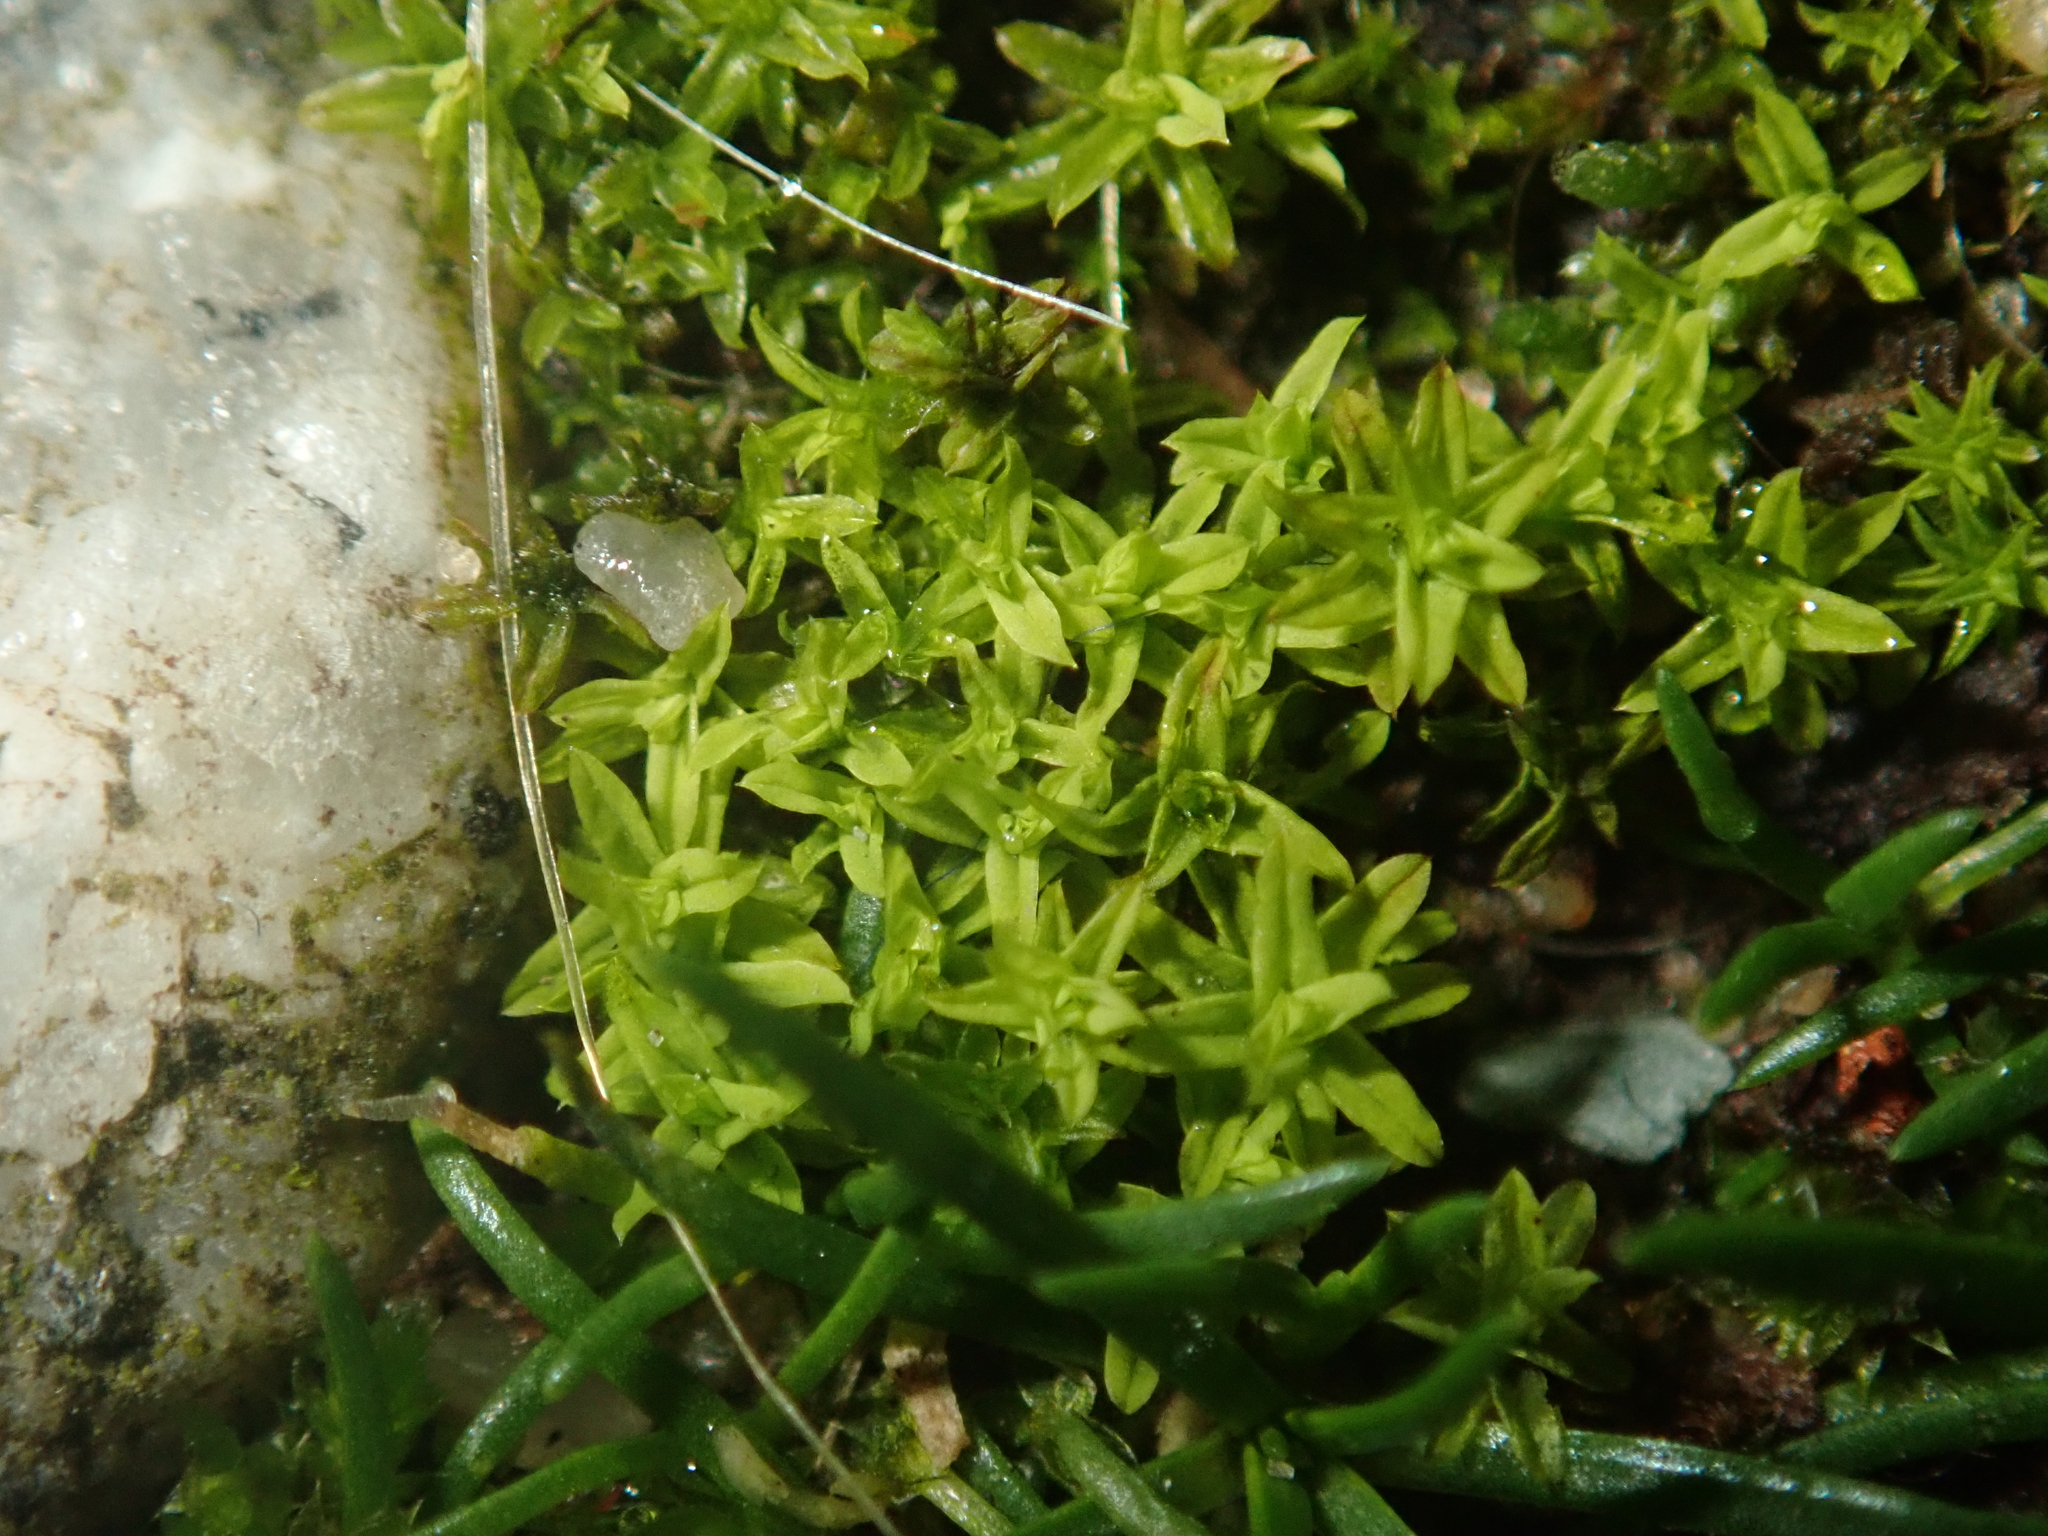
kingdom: Plantae
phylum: Bryophyta
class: Bryopsida
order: Pottiales
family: Pottiaceae
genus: Barbula
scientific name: Barbula unguiculata
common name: Prickly beard moss
